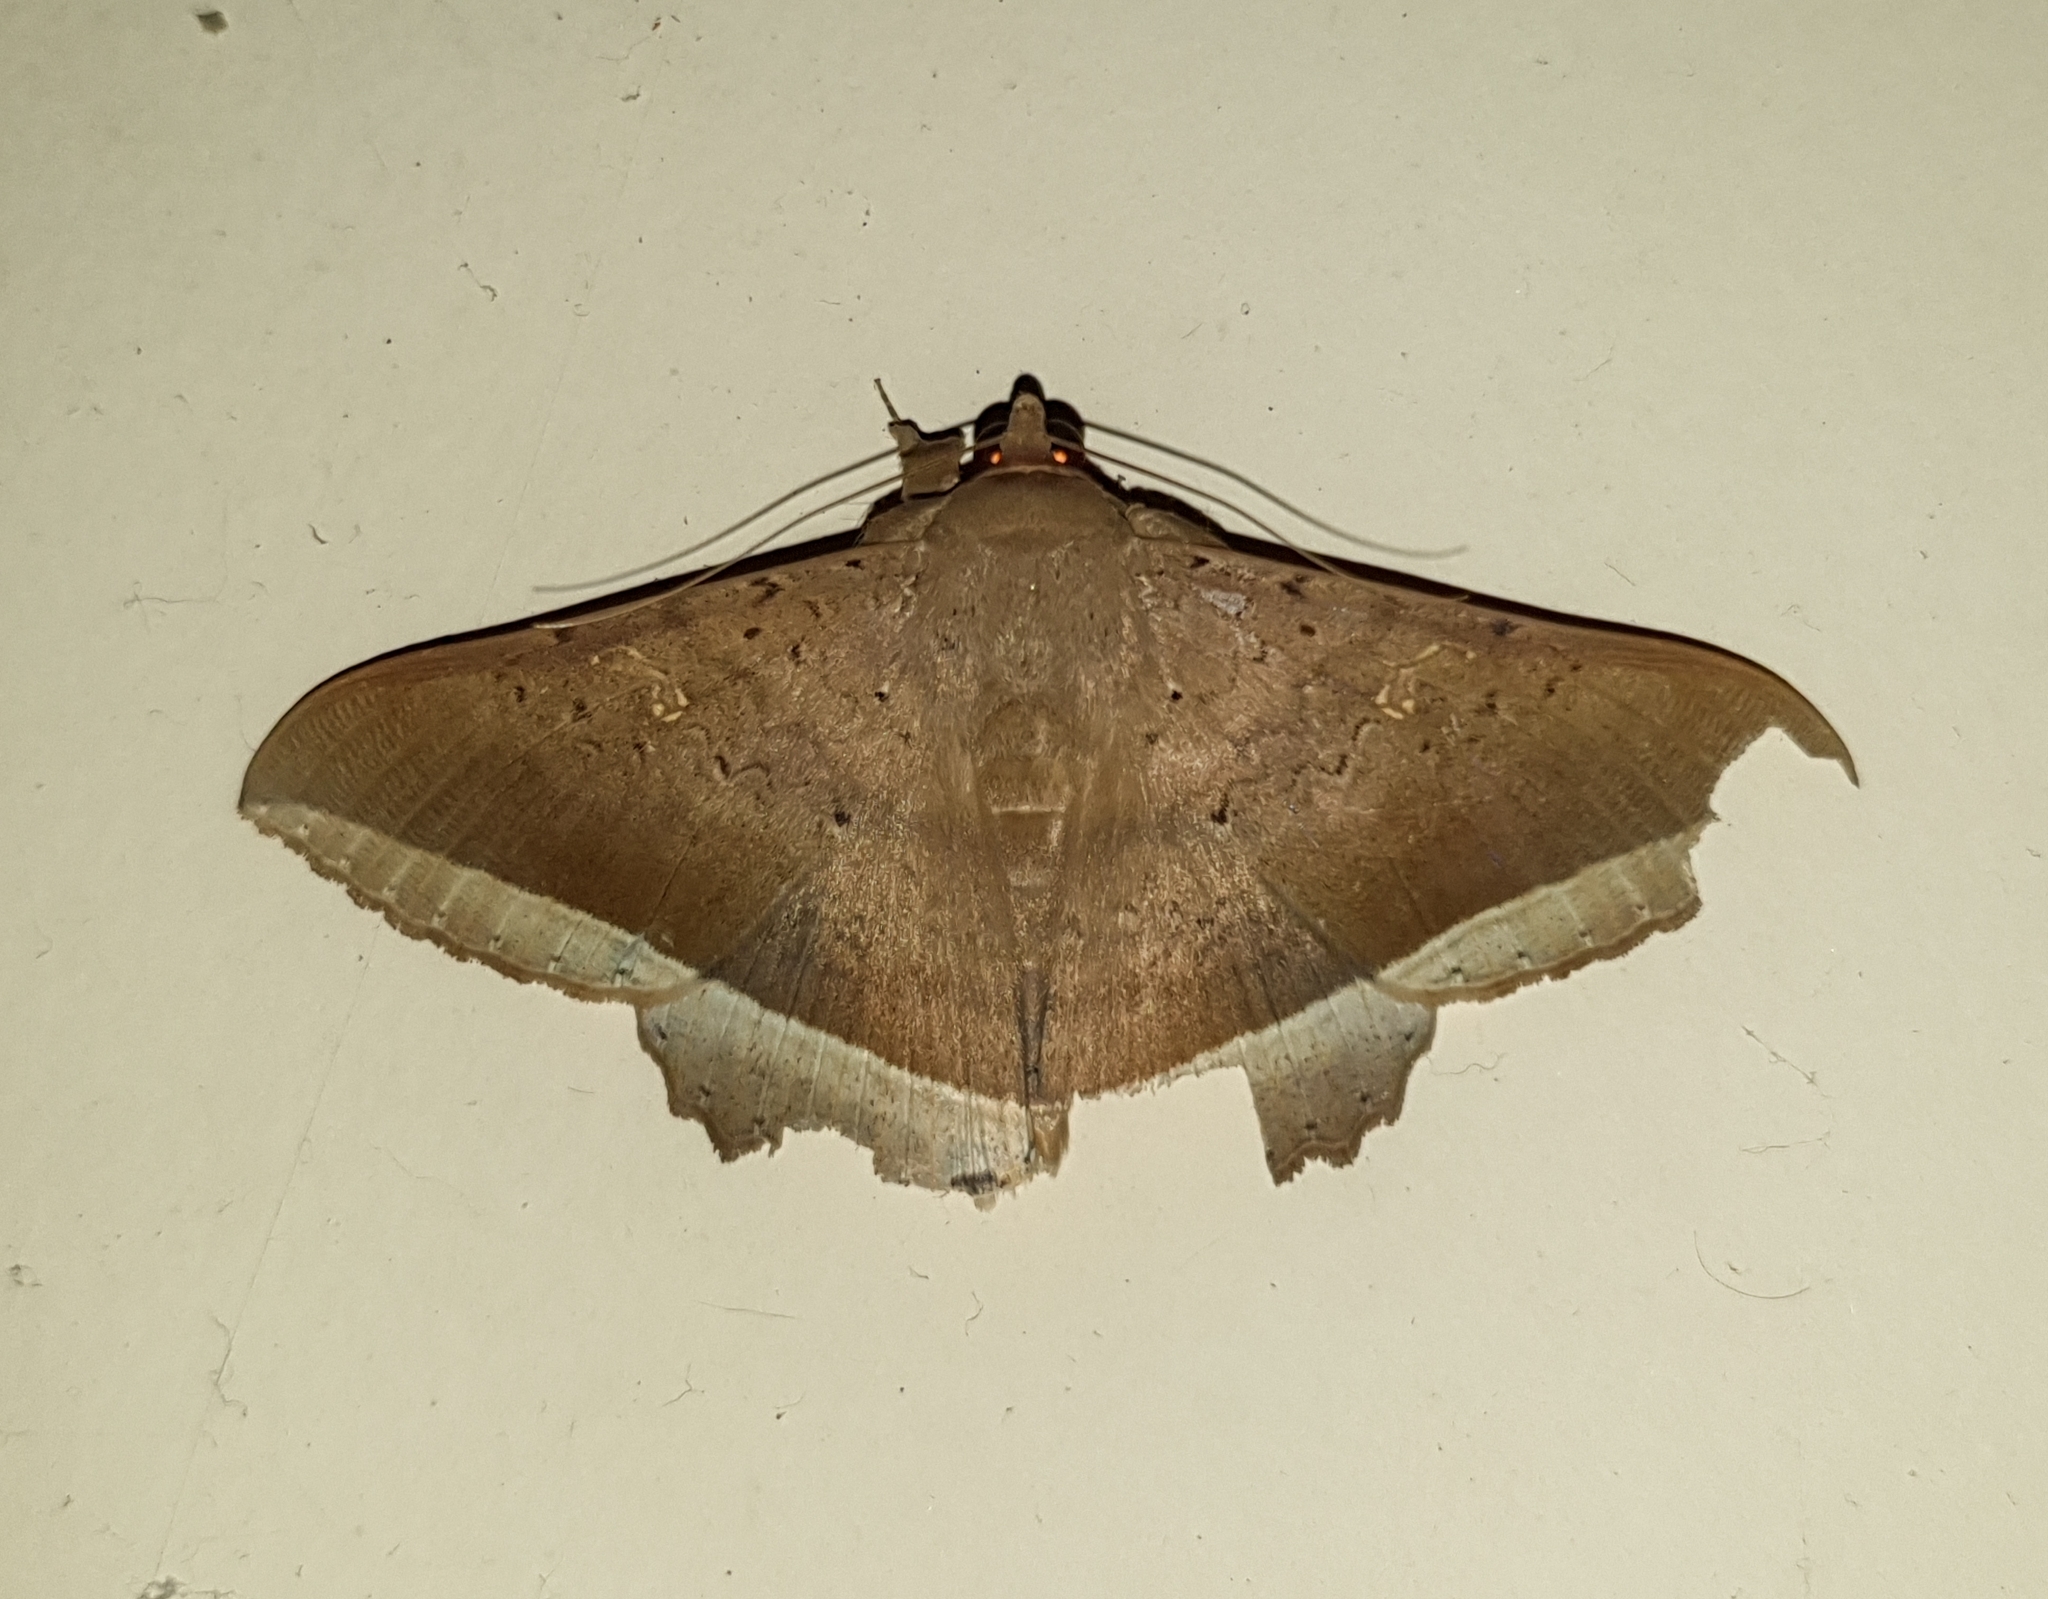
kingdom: Animalia
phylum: Arthropoda
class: Insecta
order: Lepidoptera
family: Erebidae
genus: Hulodes
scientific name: Hulodes caranea
